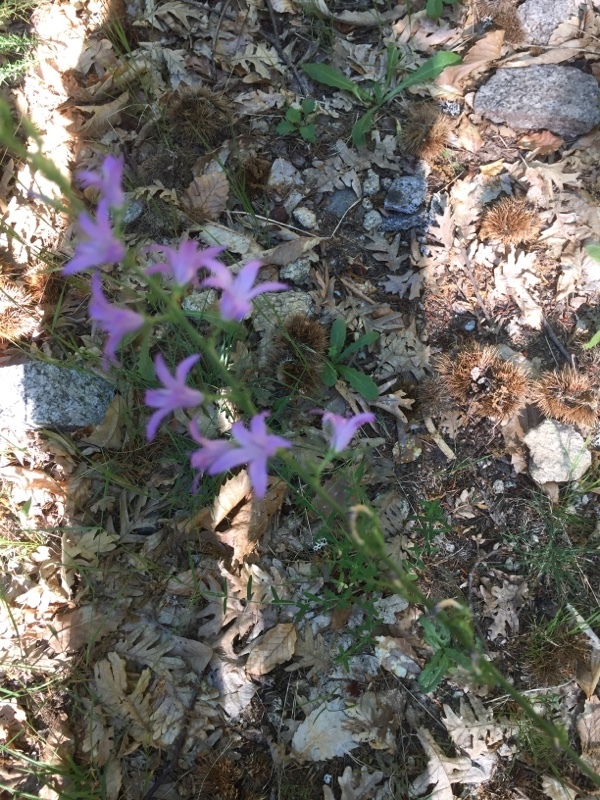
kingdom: Plantae
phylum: Tracheophyta
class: Magnoliopsida
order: Asterales
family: Campanulaceae
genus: Campanula
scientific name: Campanula rapunculus
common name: Rampion bellflower
